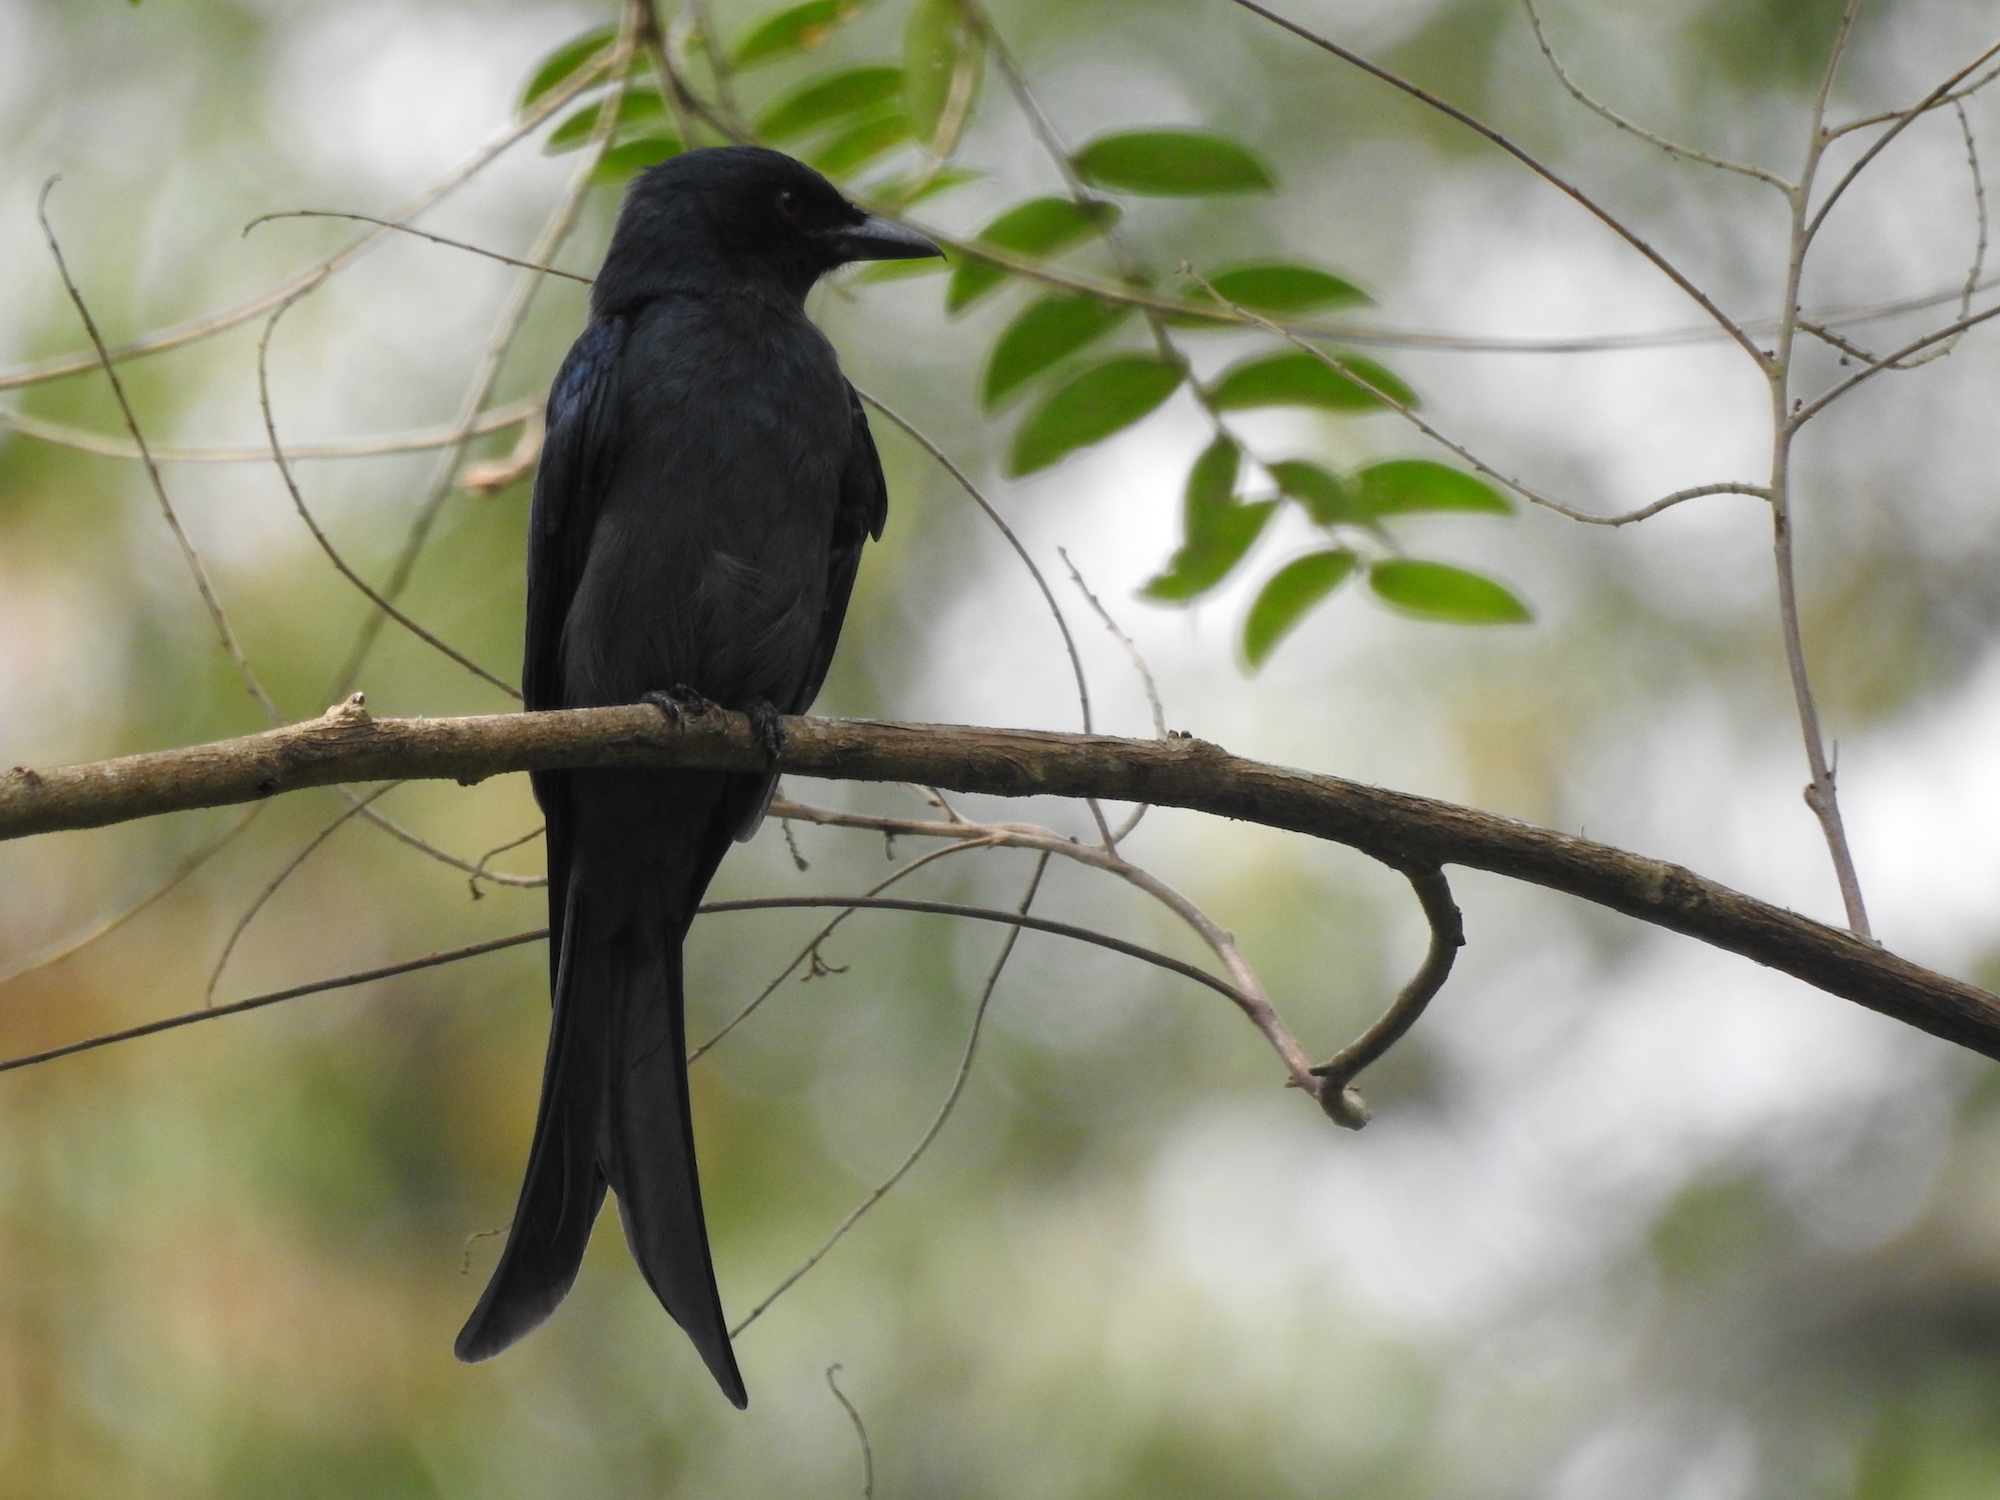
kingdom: Animalia
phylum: Chordata
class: Aves
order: Passeriformes
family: Dicruridae
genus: Dicrurus
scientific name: Dicrurus leucophaeus
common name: Ashy drongo
